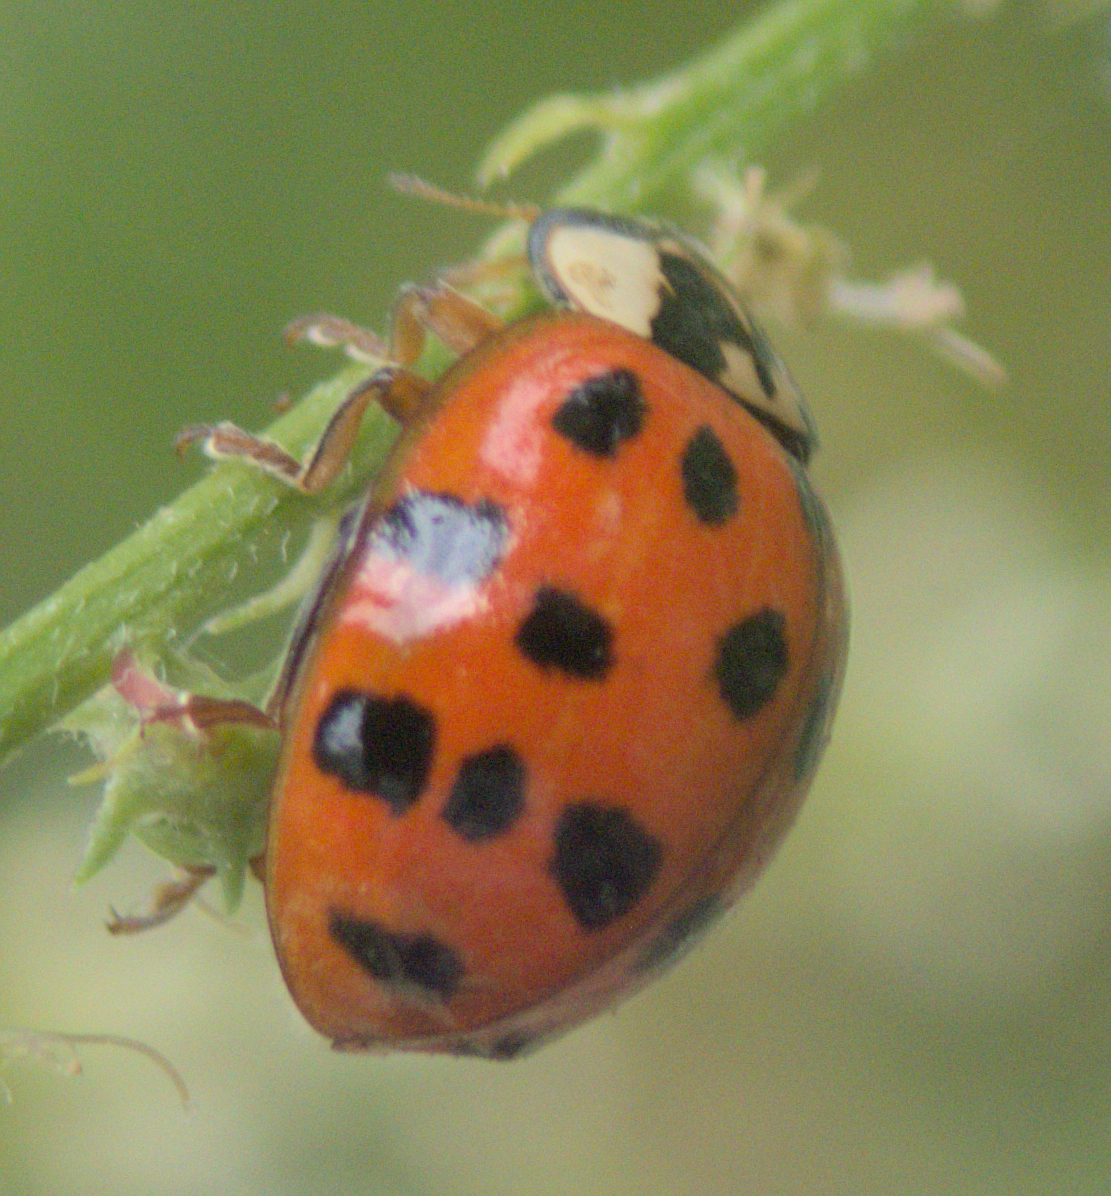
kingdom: Animalia
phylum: Arthropoda
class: Insecta
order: Coleoptera
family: Coccinellidae
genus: Harmonia
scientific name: Harmonia axyridis
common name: Harlequin ladybird
